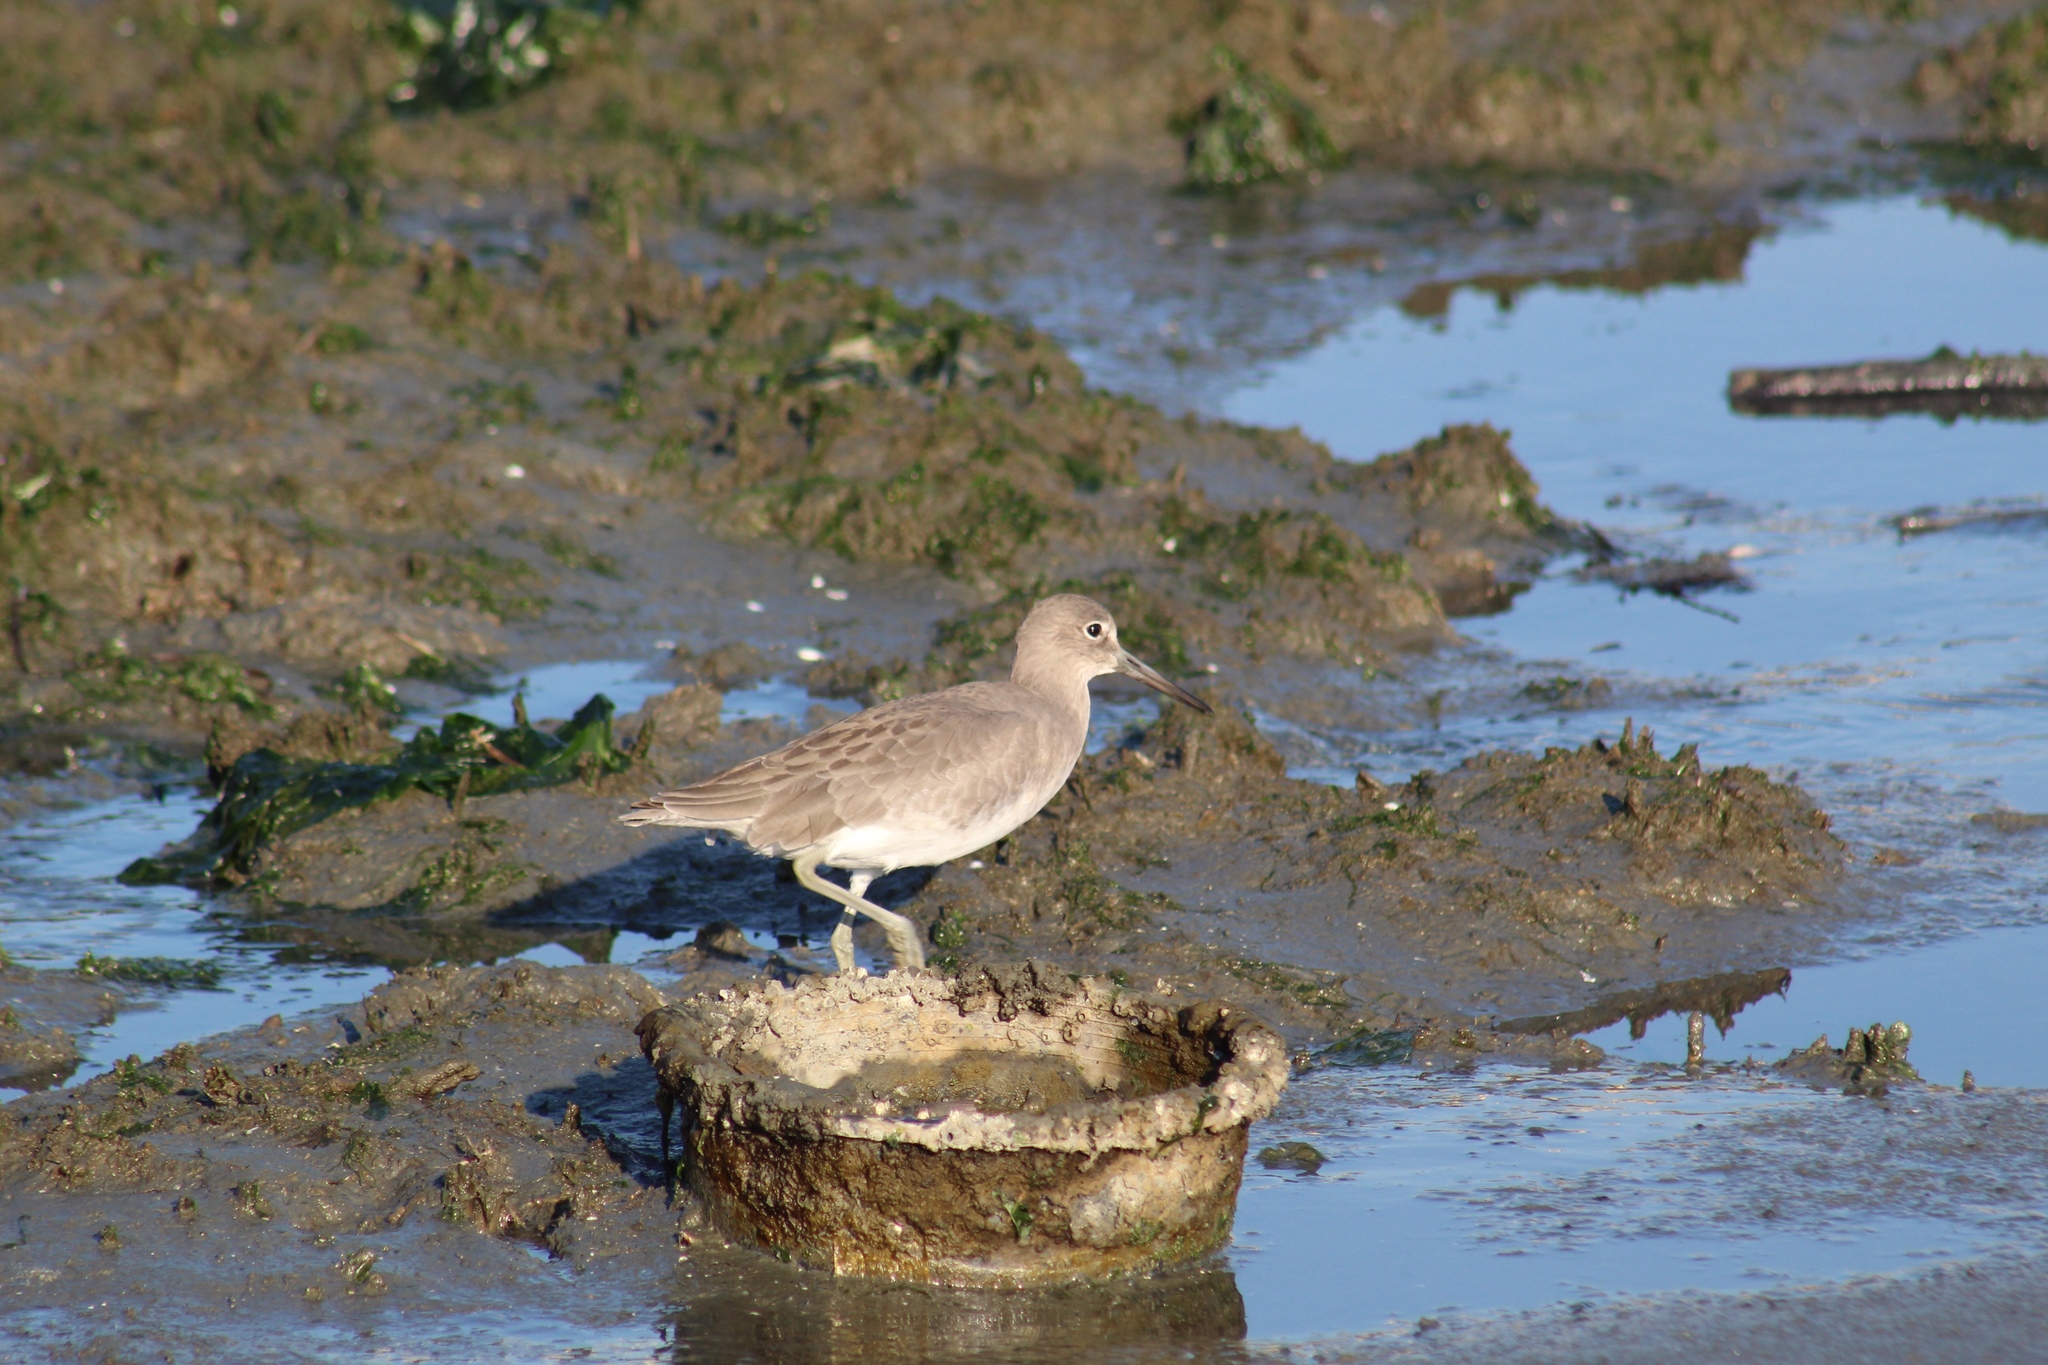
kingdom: Animalia
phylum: Chordata
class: Aves
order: Charadriiformes
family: Scolopacidae
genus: Tringa
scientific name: Tringa semipalmata
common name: Willet
